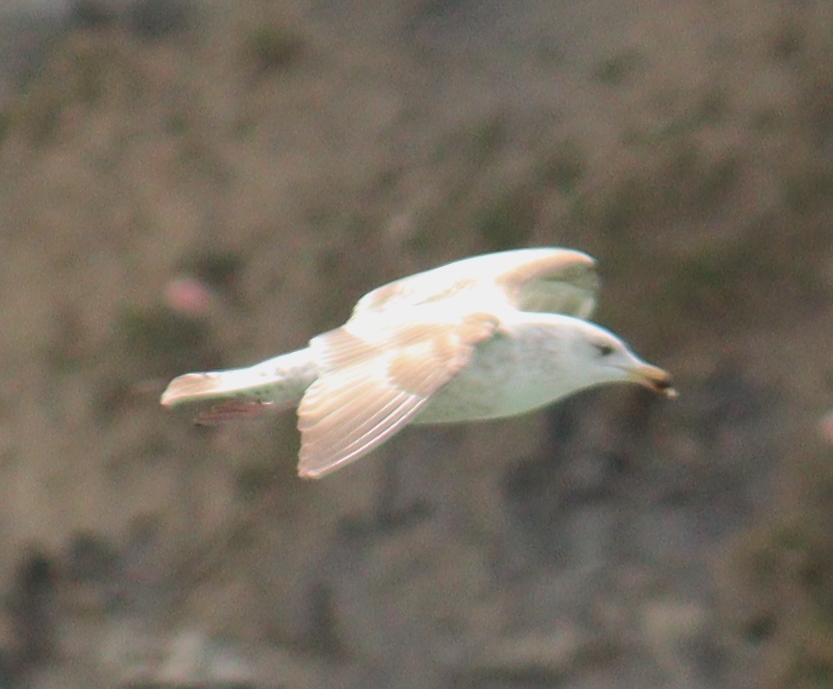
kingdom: Animalia
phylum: Chordata
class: Aves
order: Charadriiformes
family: Laridae
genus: Larus
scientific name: Larus argentatus
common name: Herring gull
